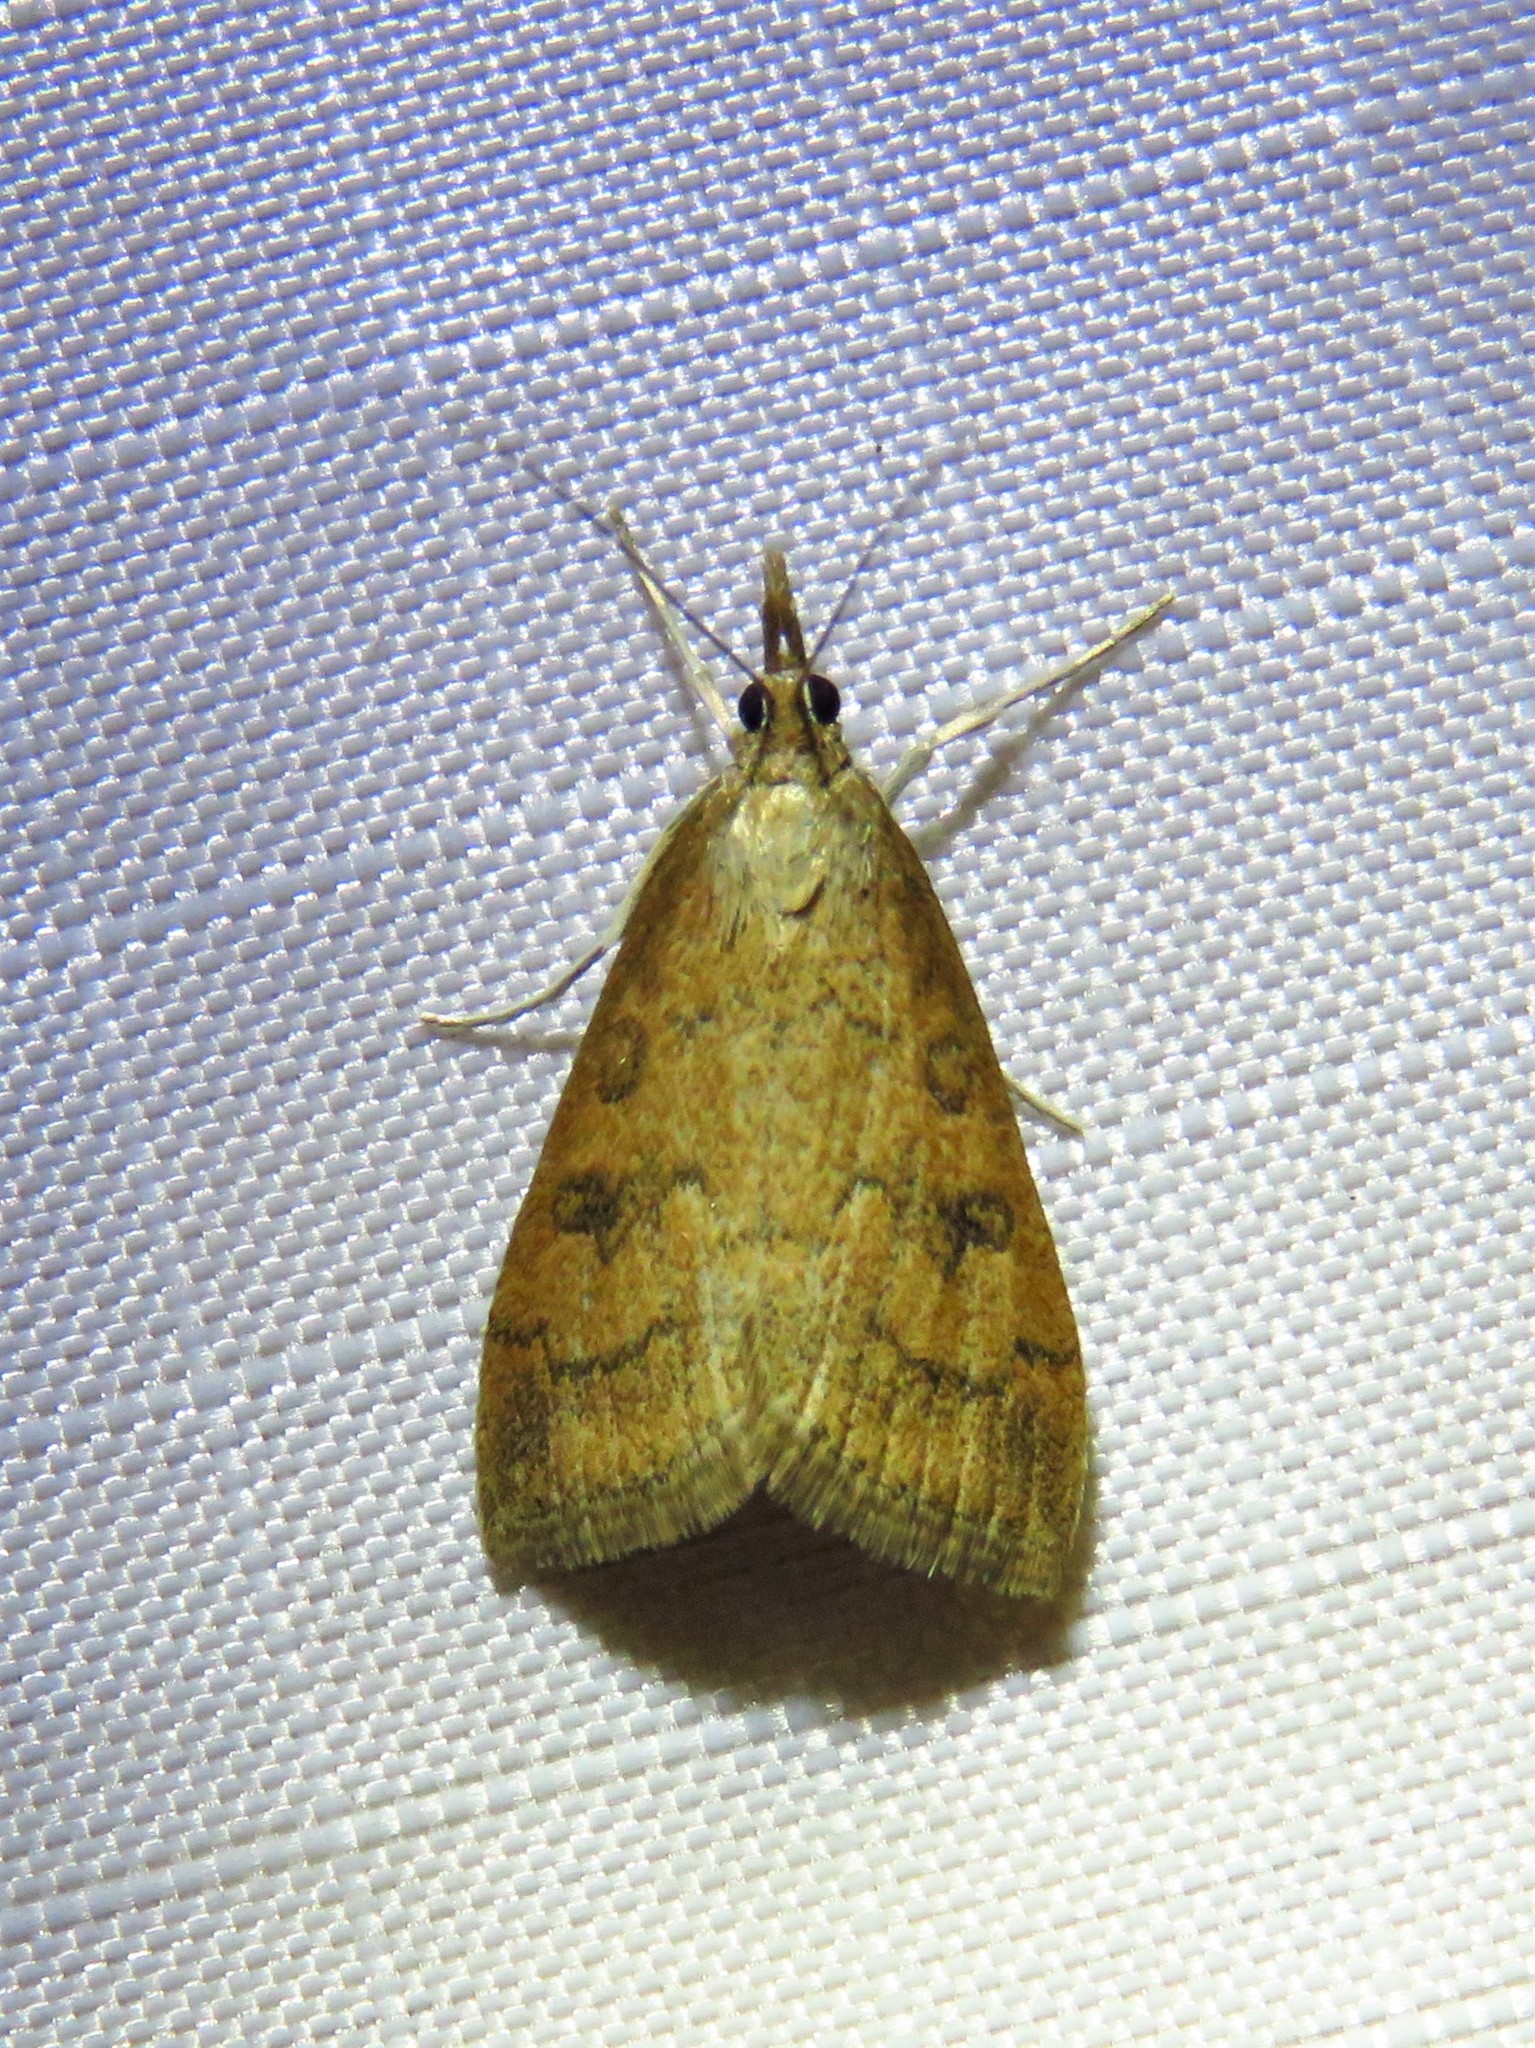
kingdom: Animalia
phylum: Arthropoda
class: Insecta
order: Lepidoptera
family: Crambidae
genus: Udea
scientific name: Udea rubigalis
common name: Celery leaftier moth
